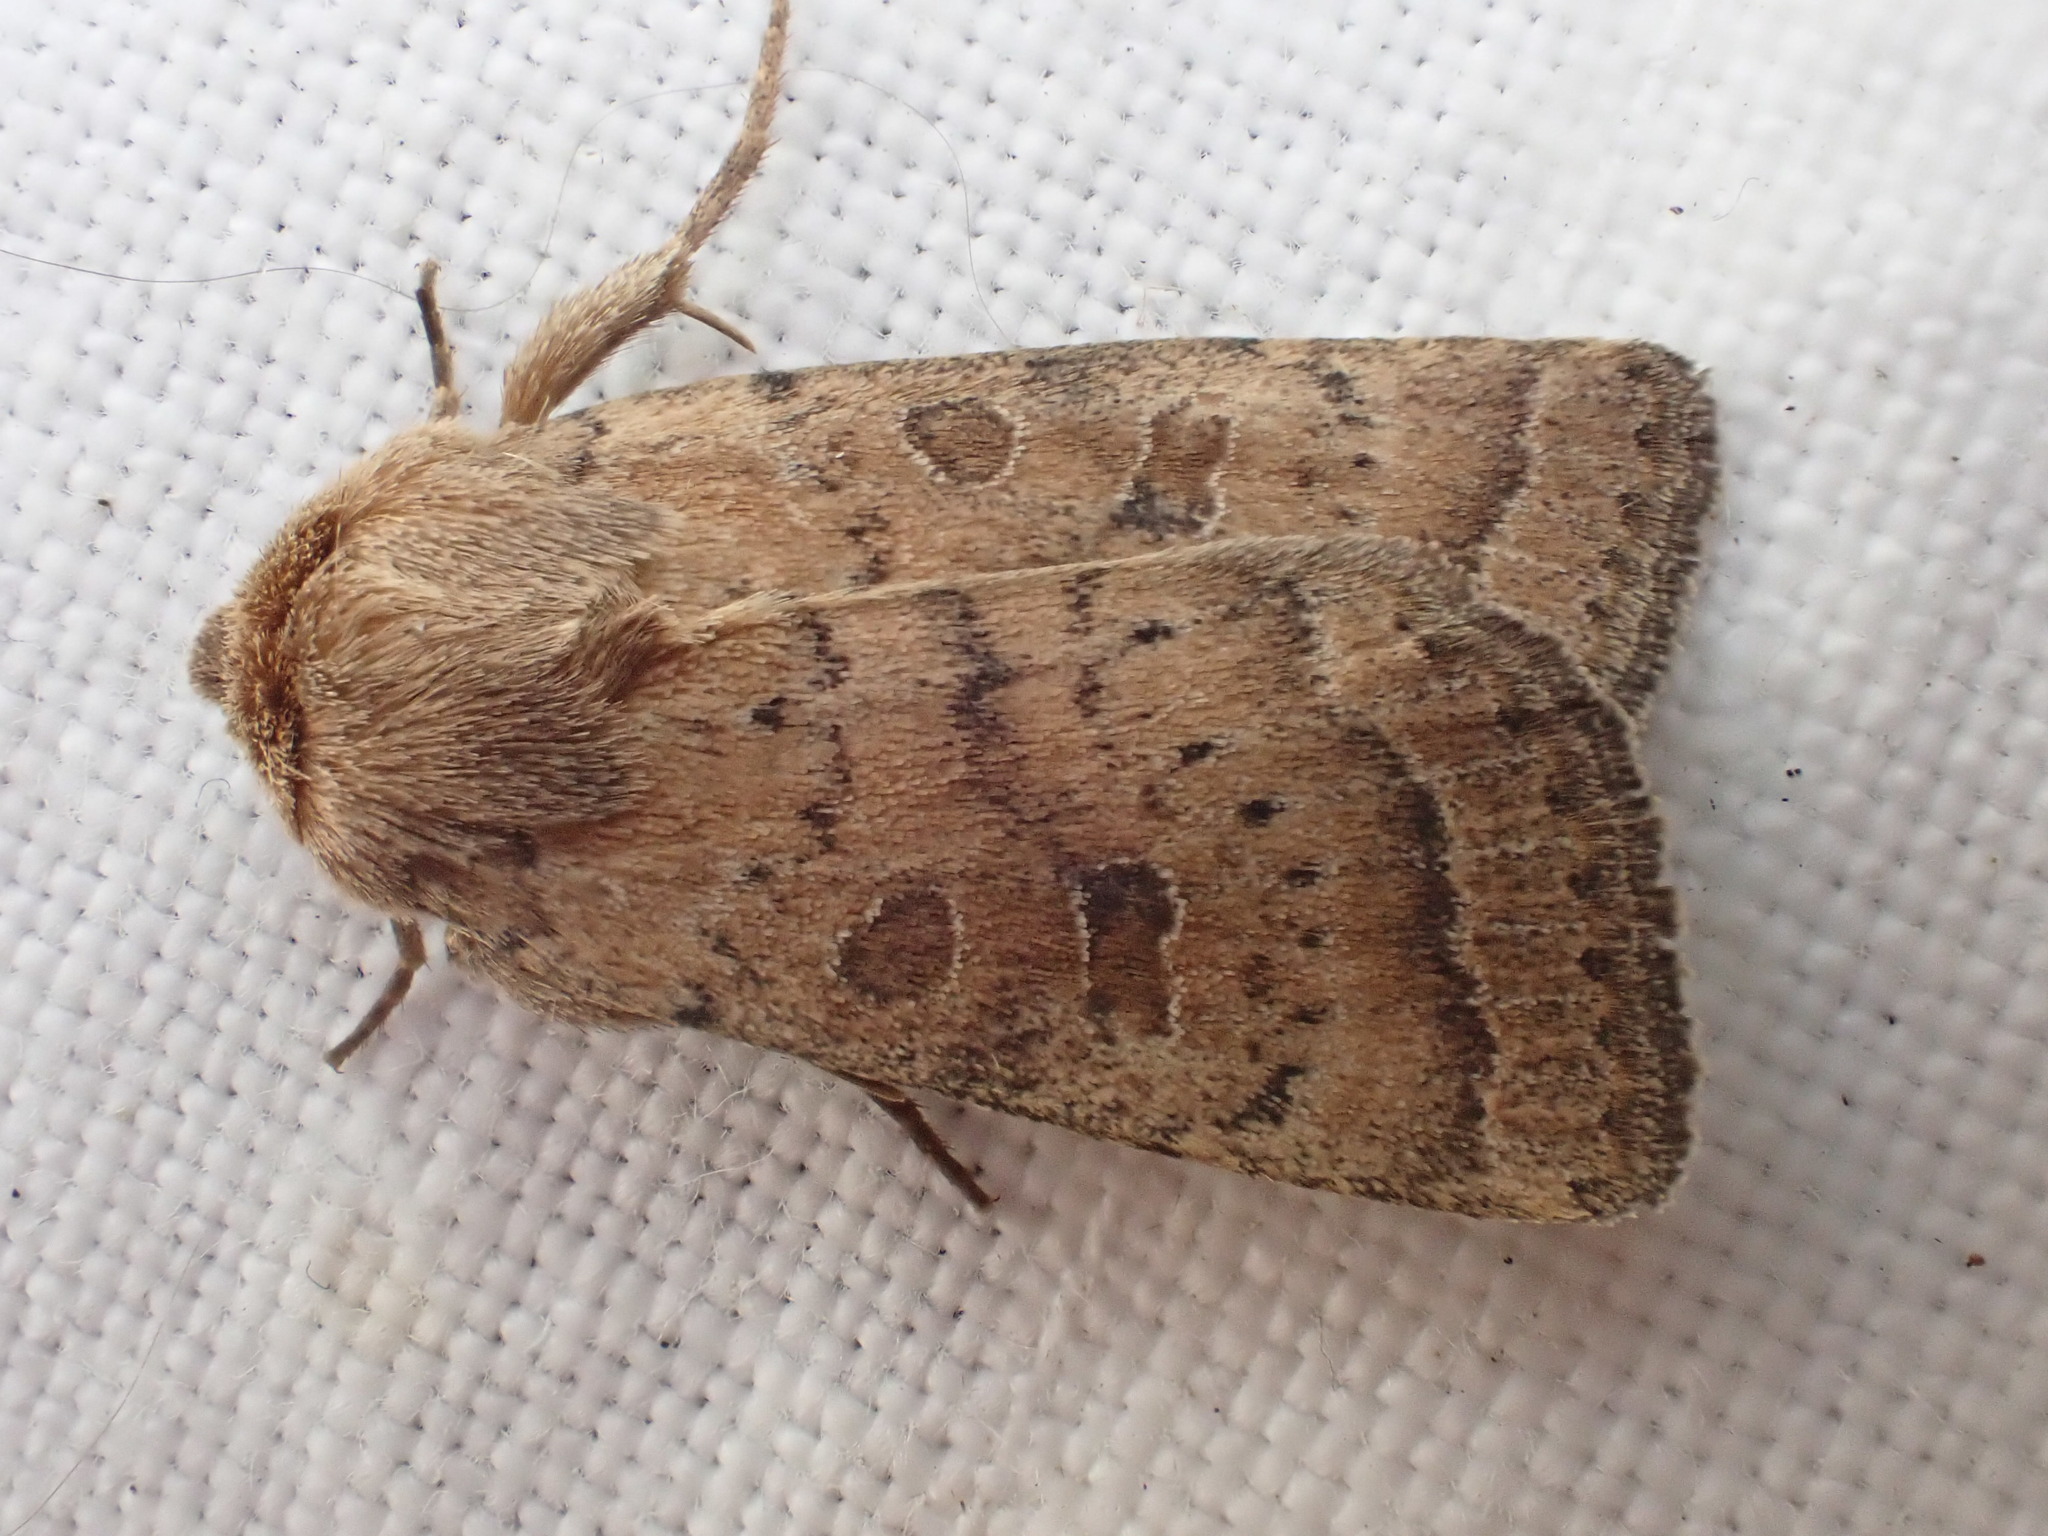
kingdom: Animalia
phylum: Arthropoda
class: Insecta
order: Lepidoptera
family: Noctuidae
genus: Hoplodrina
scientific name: Hoplodrina octogenaria
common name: Uncertain
